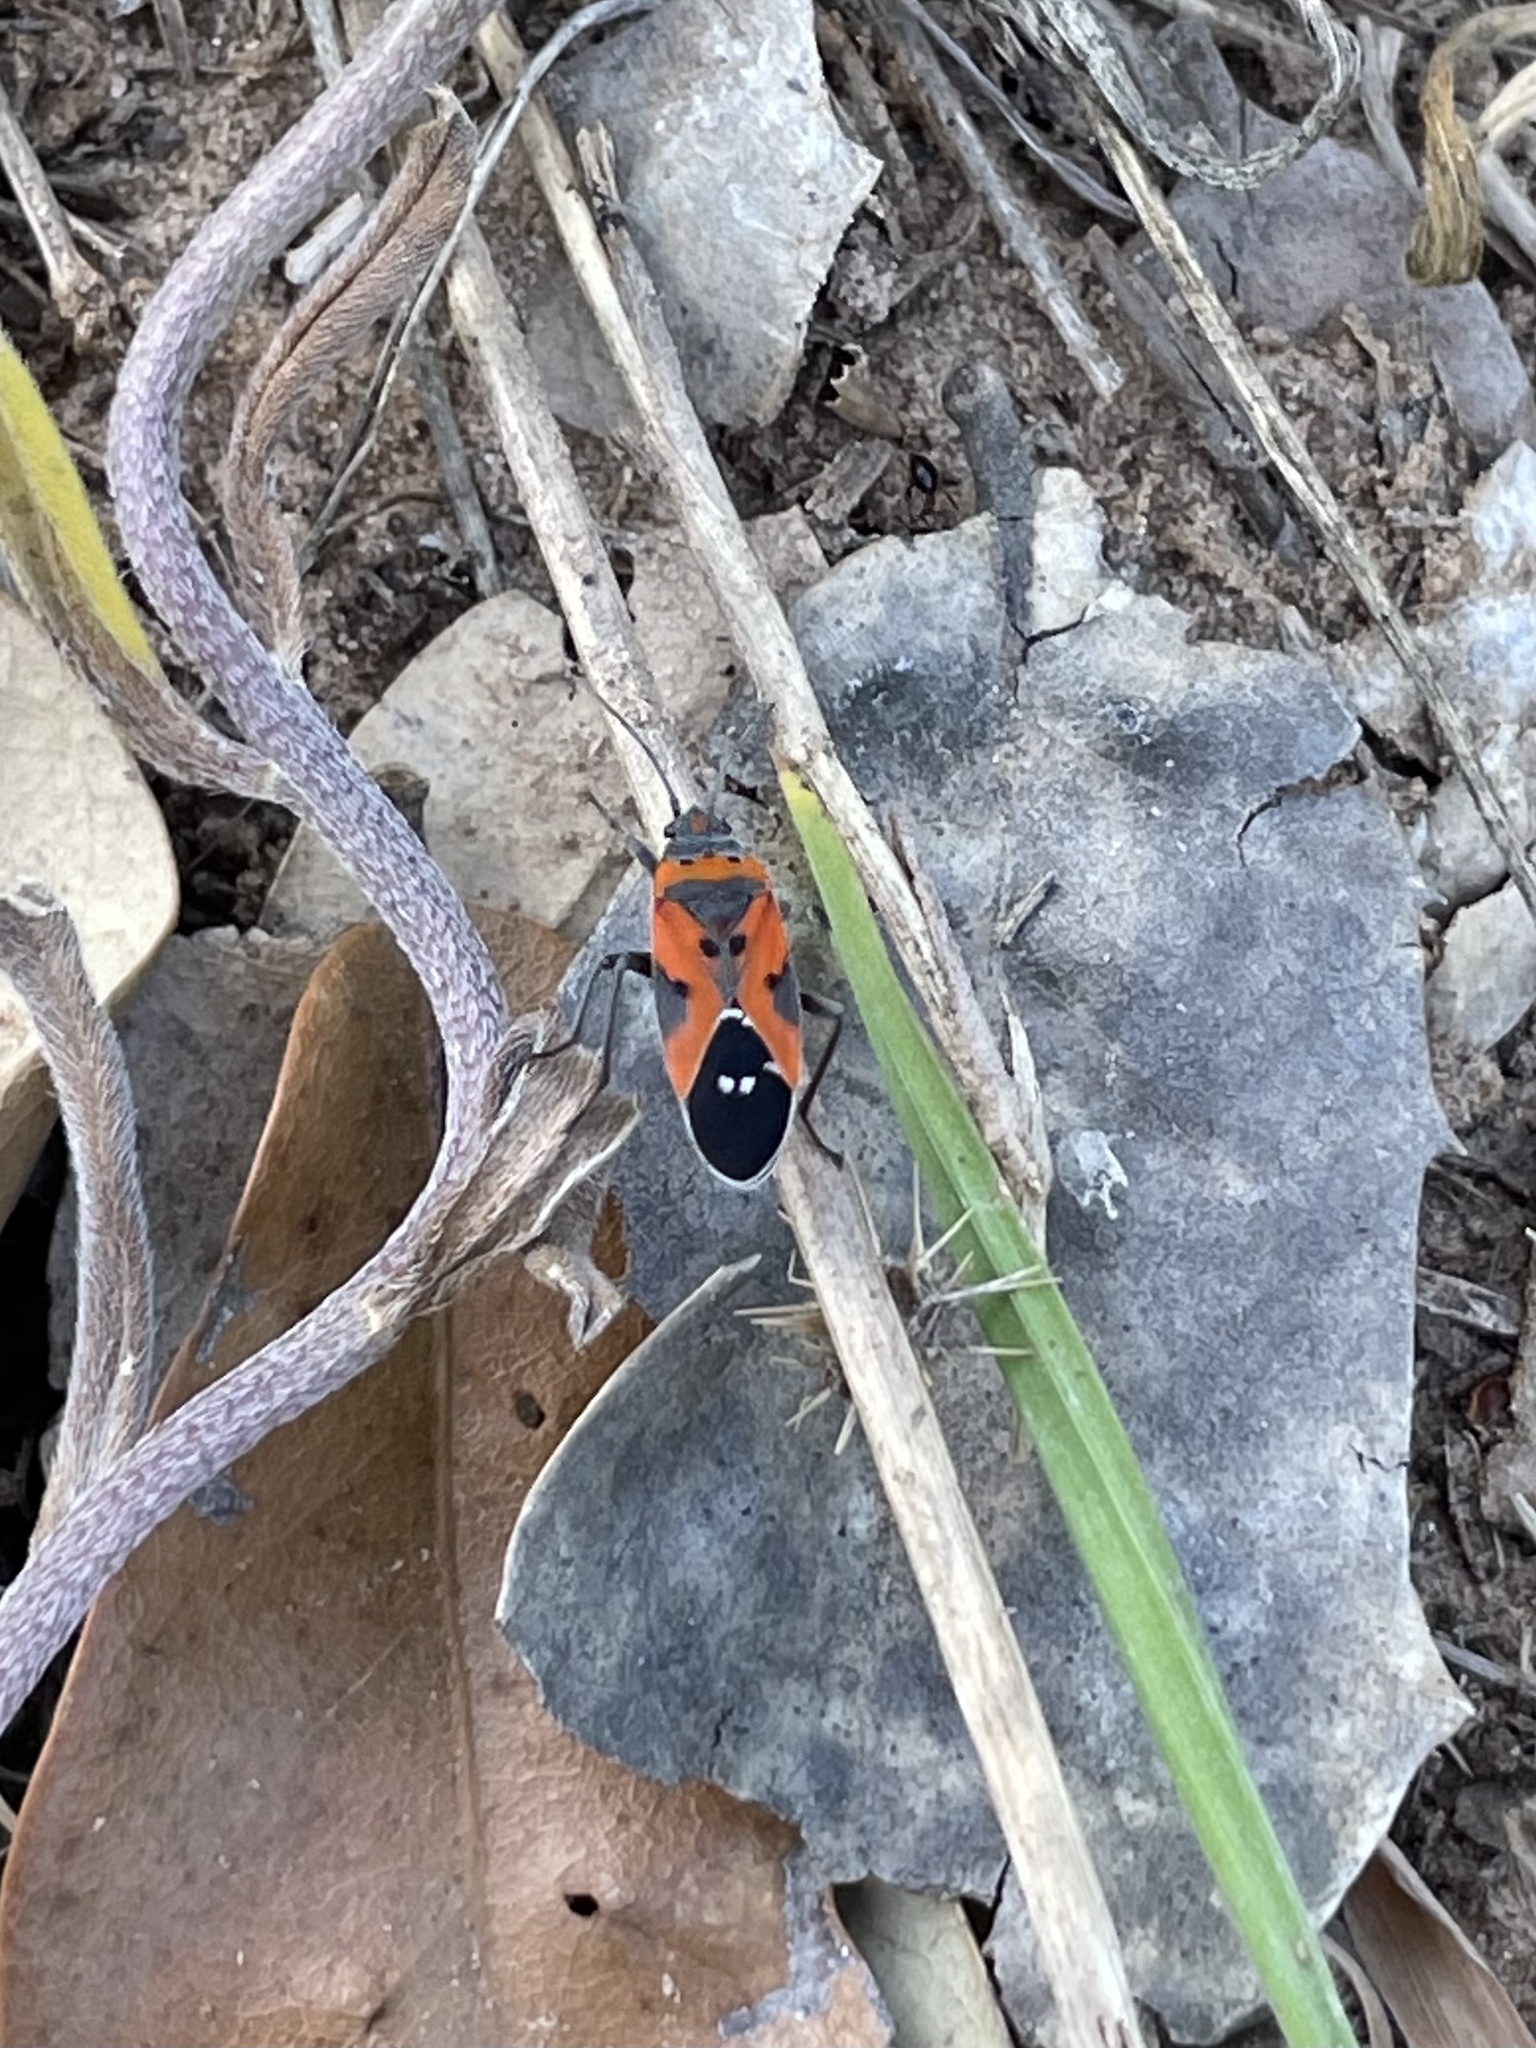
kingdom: Animalia
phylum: Arthropoda
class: Insecta
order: Hemiptera
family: Lygaeidae
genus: Lygaeus
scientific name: Lygaeus reclivatus
